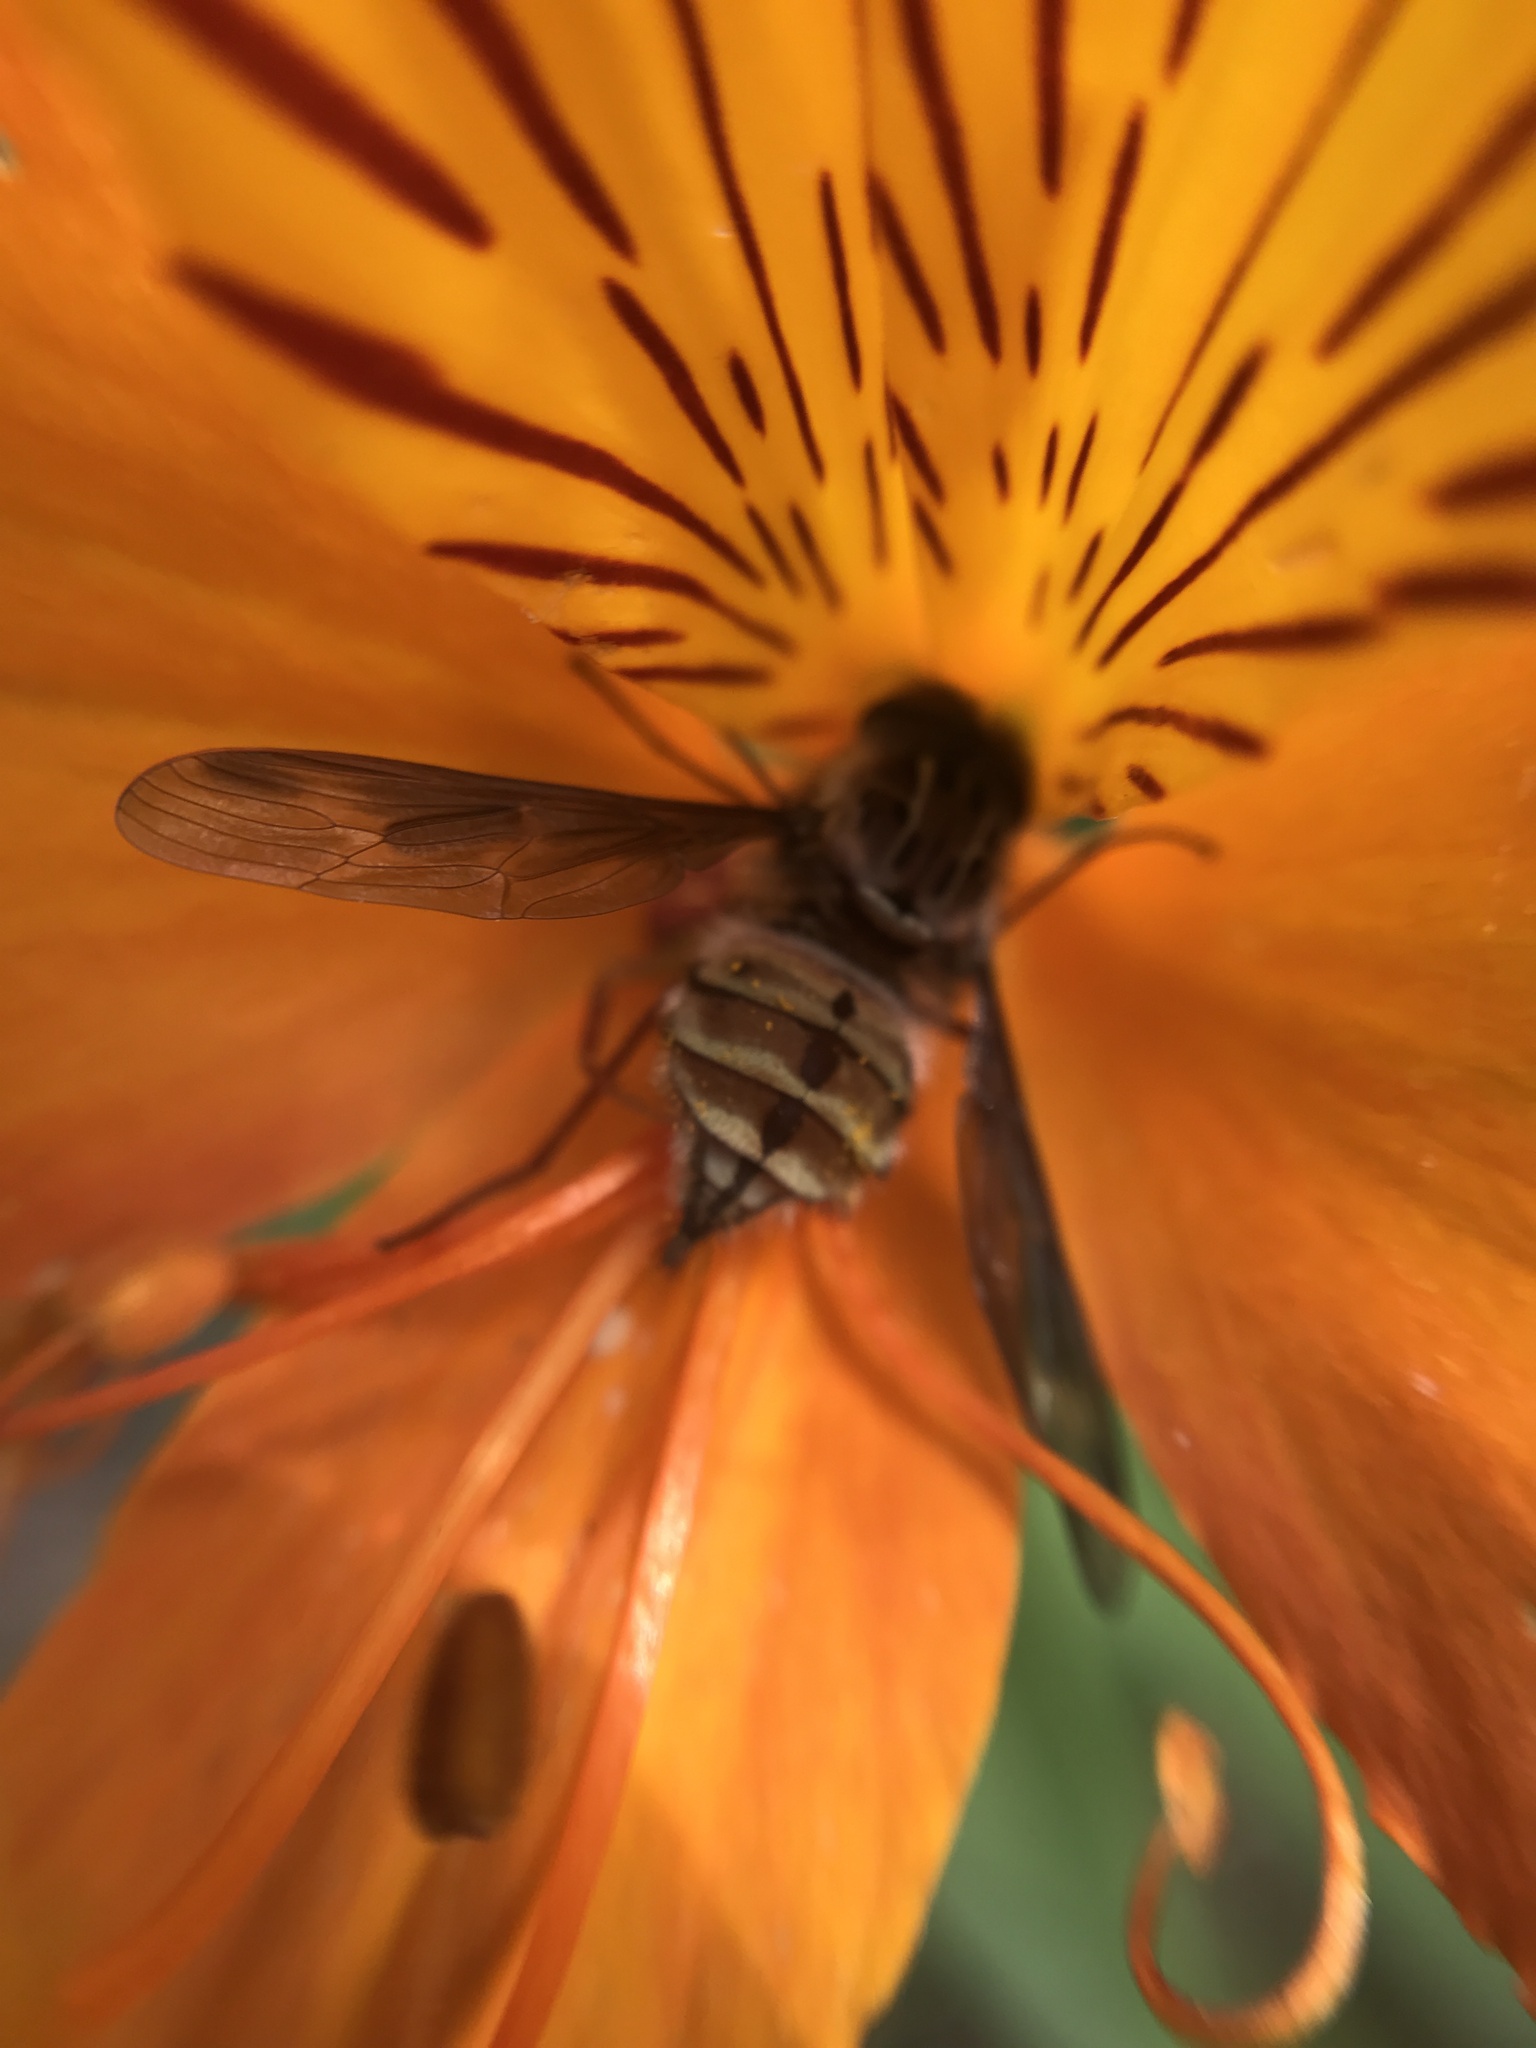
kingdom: Animalia
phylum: Arthropoda
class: Insecta
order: Diptera
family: Nemestrinidae
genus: Trichophthalma
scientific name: Trichophthalma nubipennis
